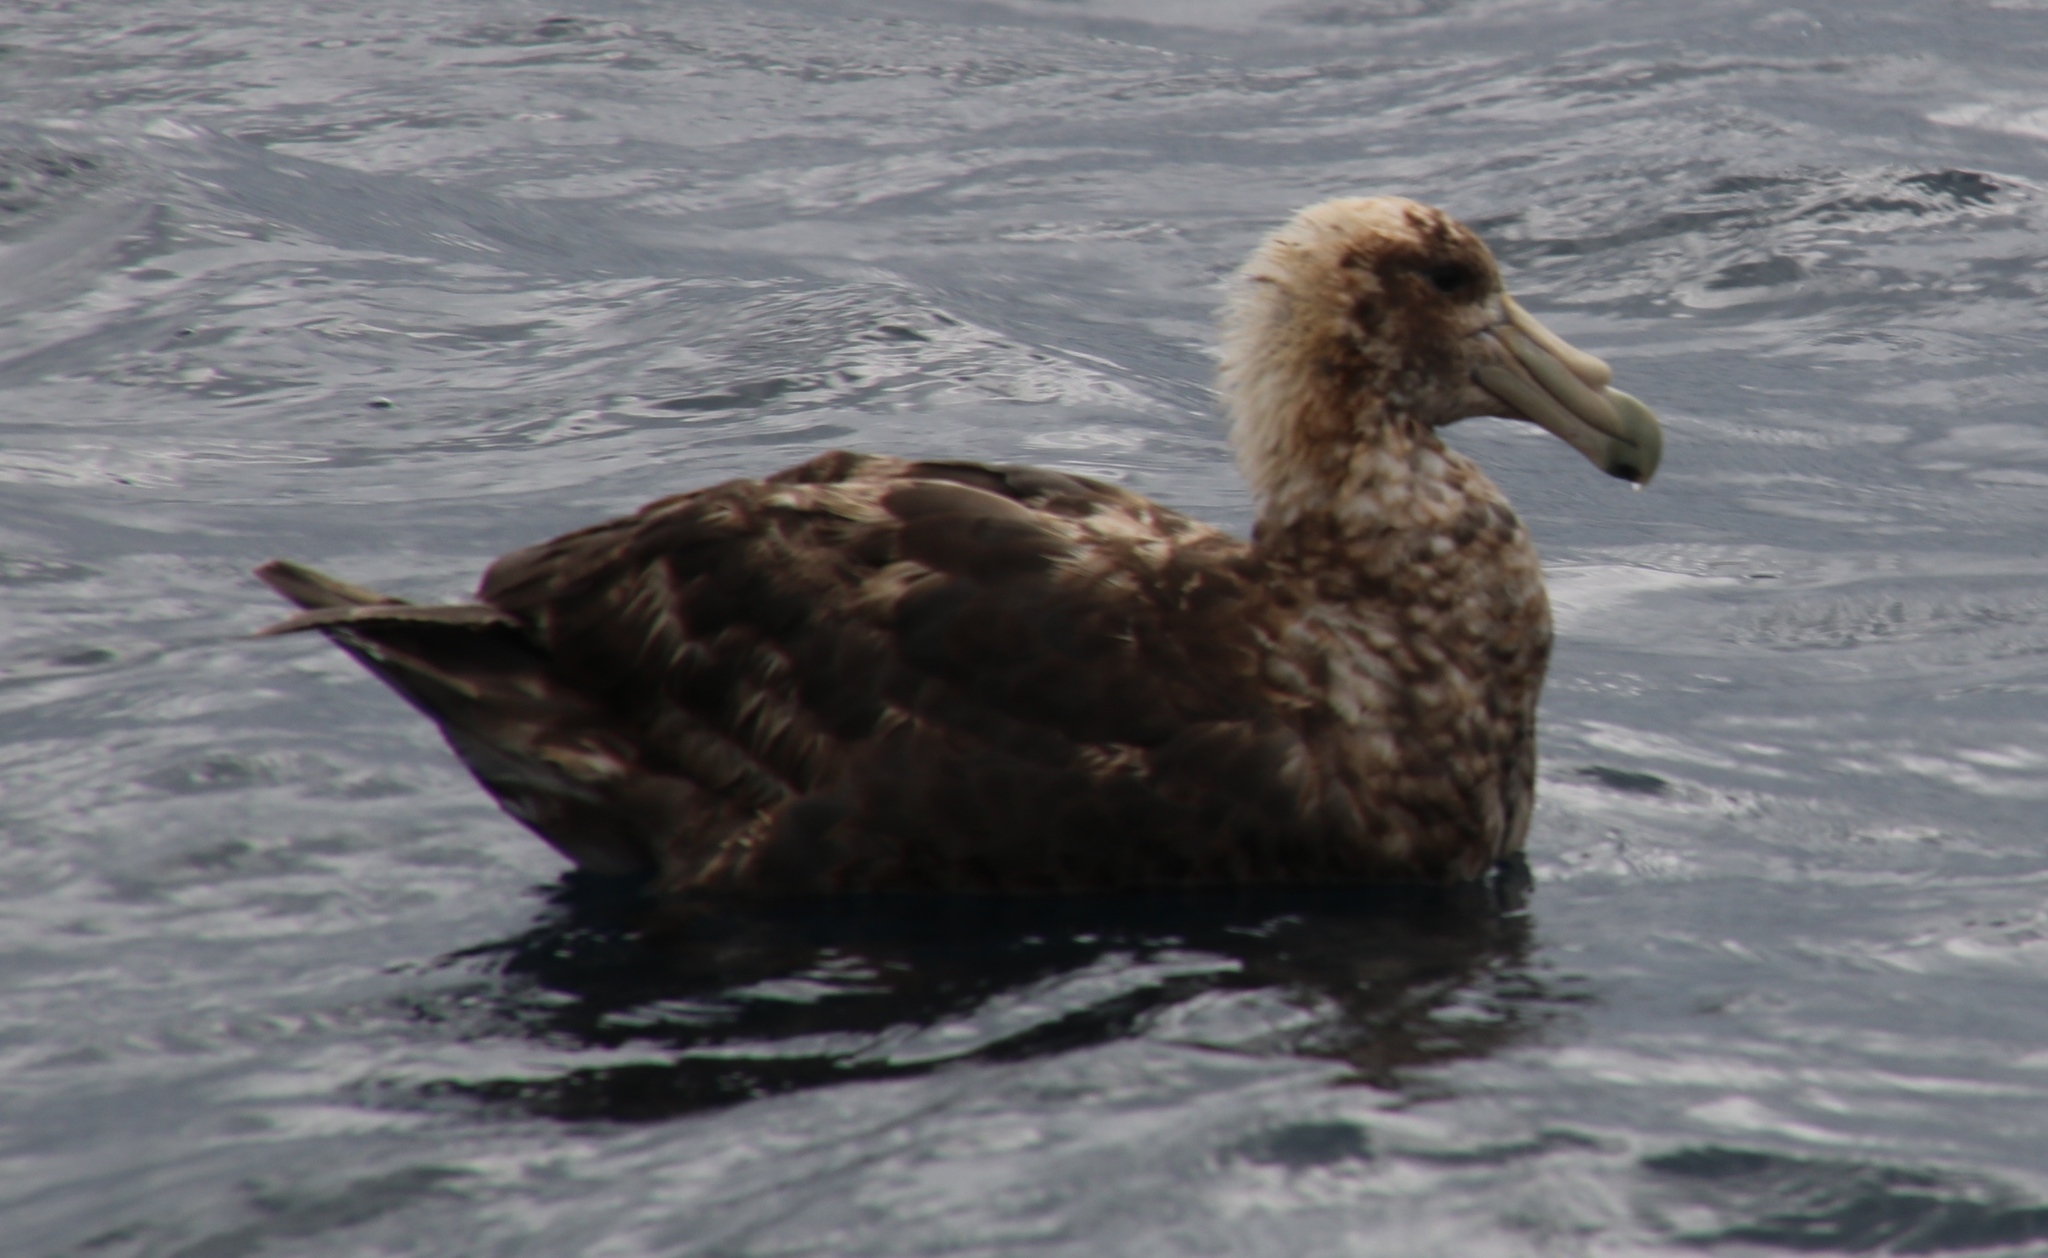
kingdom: Animalia
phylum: Chordata
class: Aves
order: Procellariiformes
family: Procellariidae
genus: Macronectes
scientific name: Macronectes giganteus
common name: Southern giant petrel
